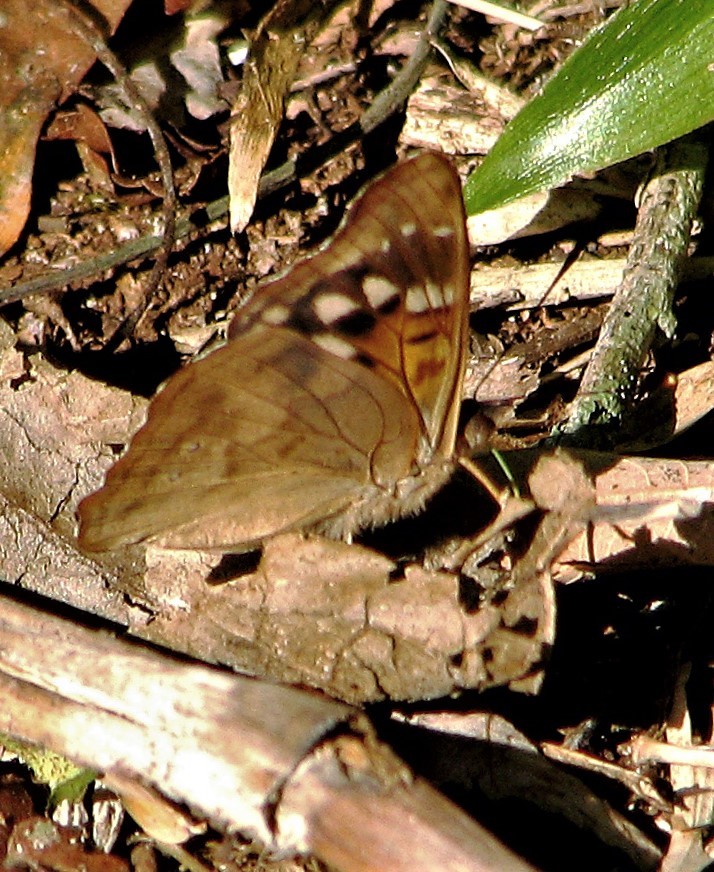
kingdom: Animalia
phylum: Arthropoda
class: Insecta
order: Lepidoptera
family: Nymphalidae
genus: Doxocopa
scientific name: Doxocopa zunilda
